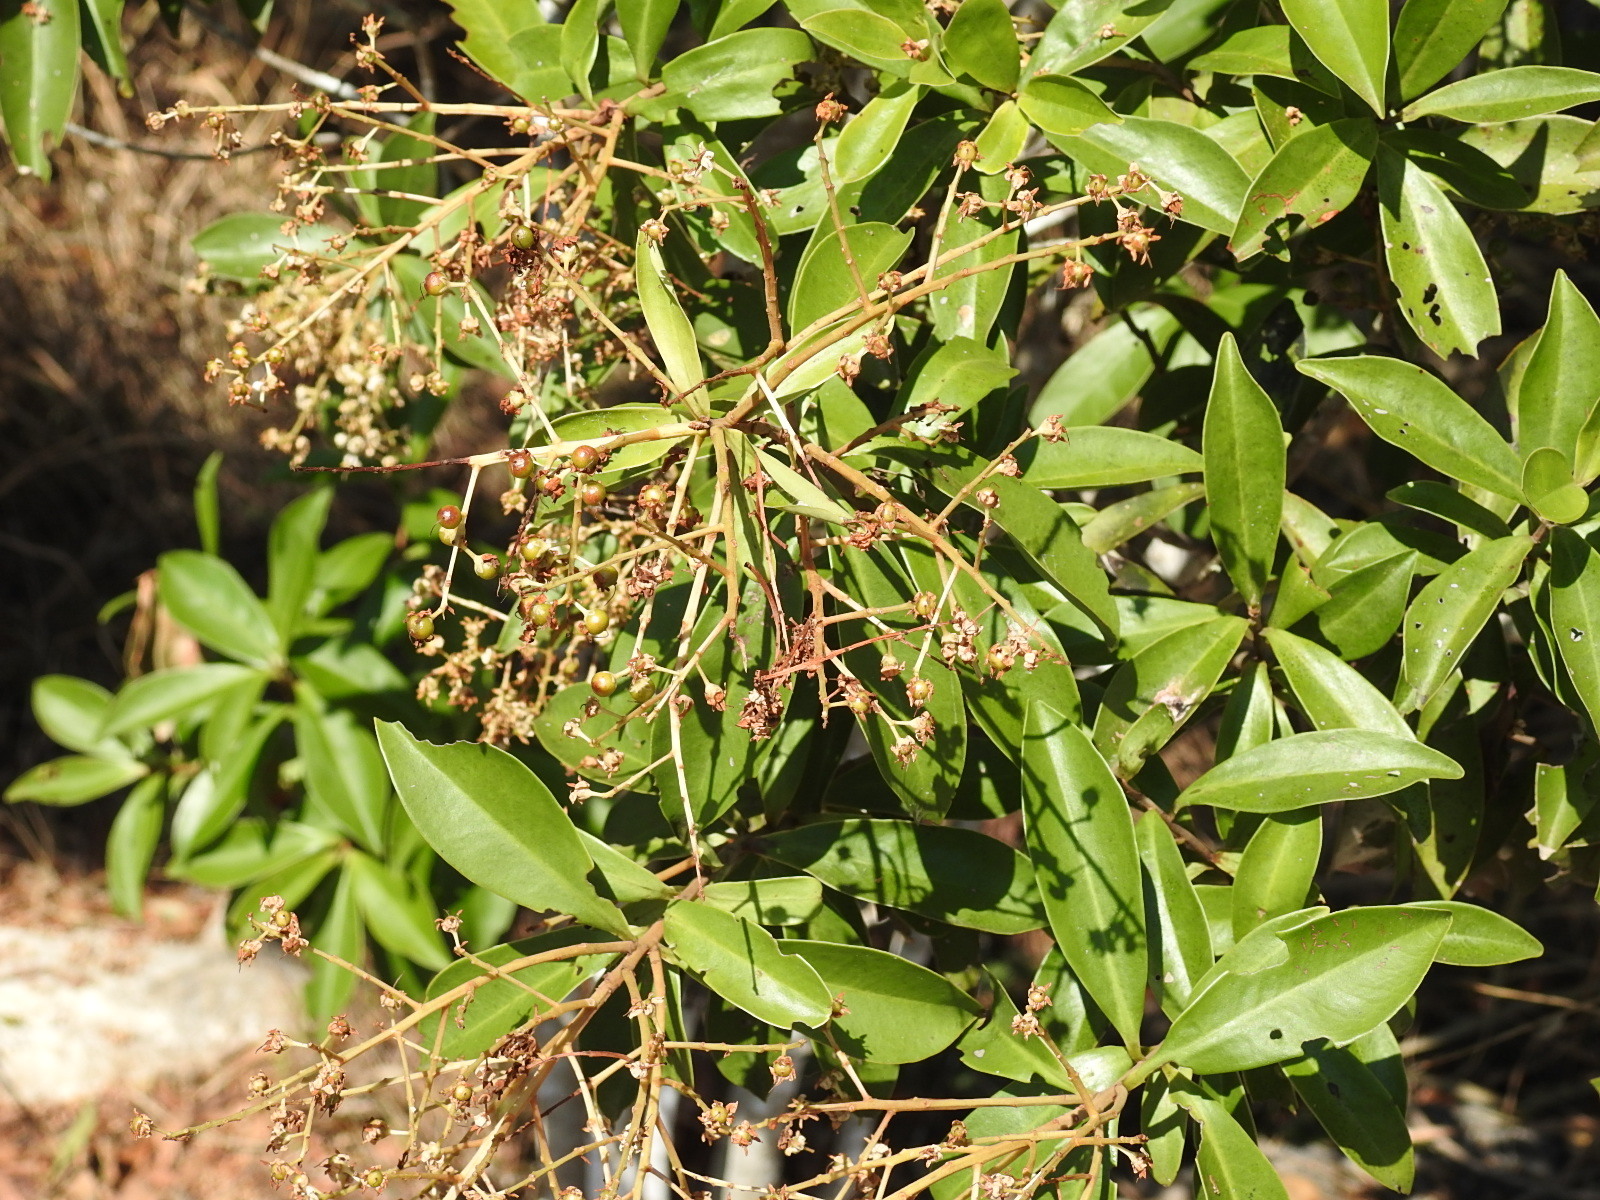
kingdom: Plantae
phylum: Tracheophyta
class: Magnoliopsida
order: Ericales
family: Primulaceae
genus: Ardisia
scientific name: Ardisia escallonioides
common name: Island marlberry
